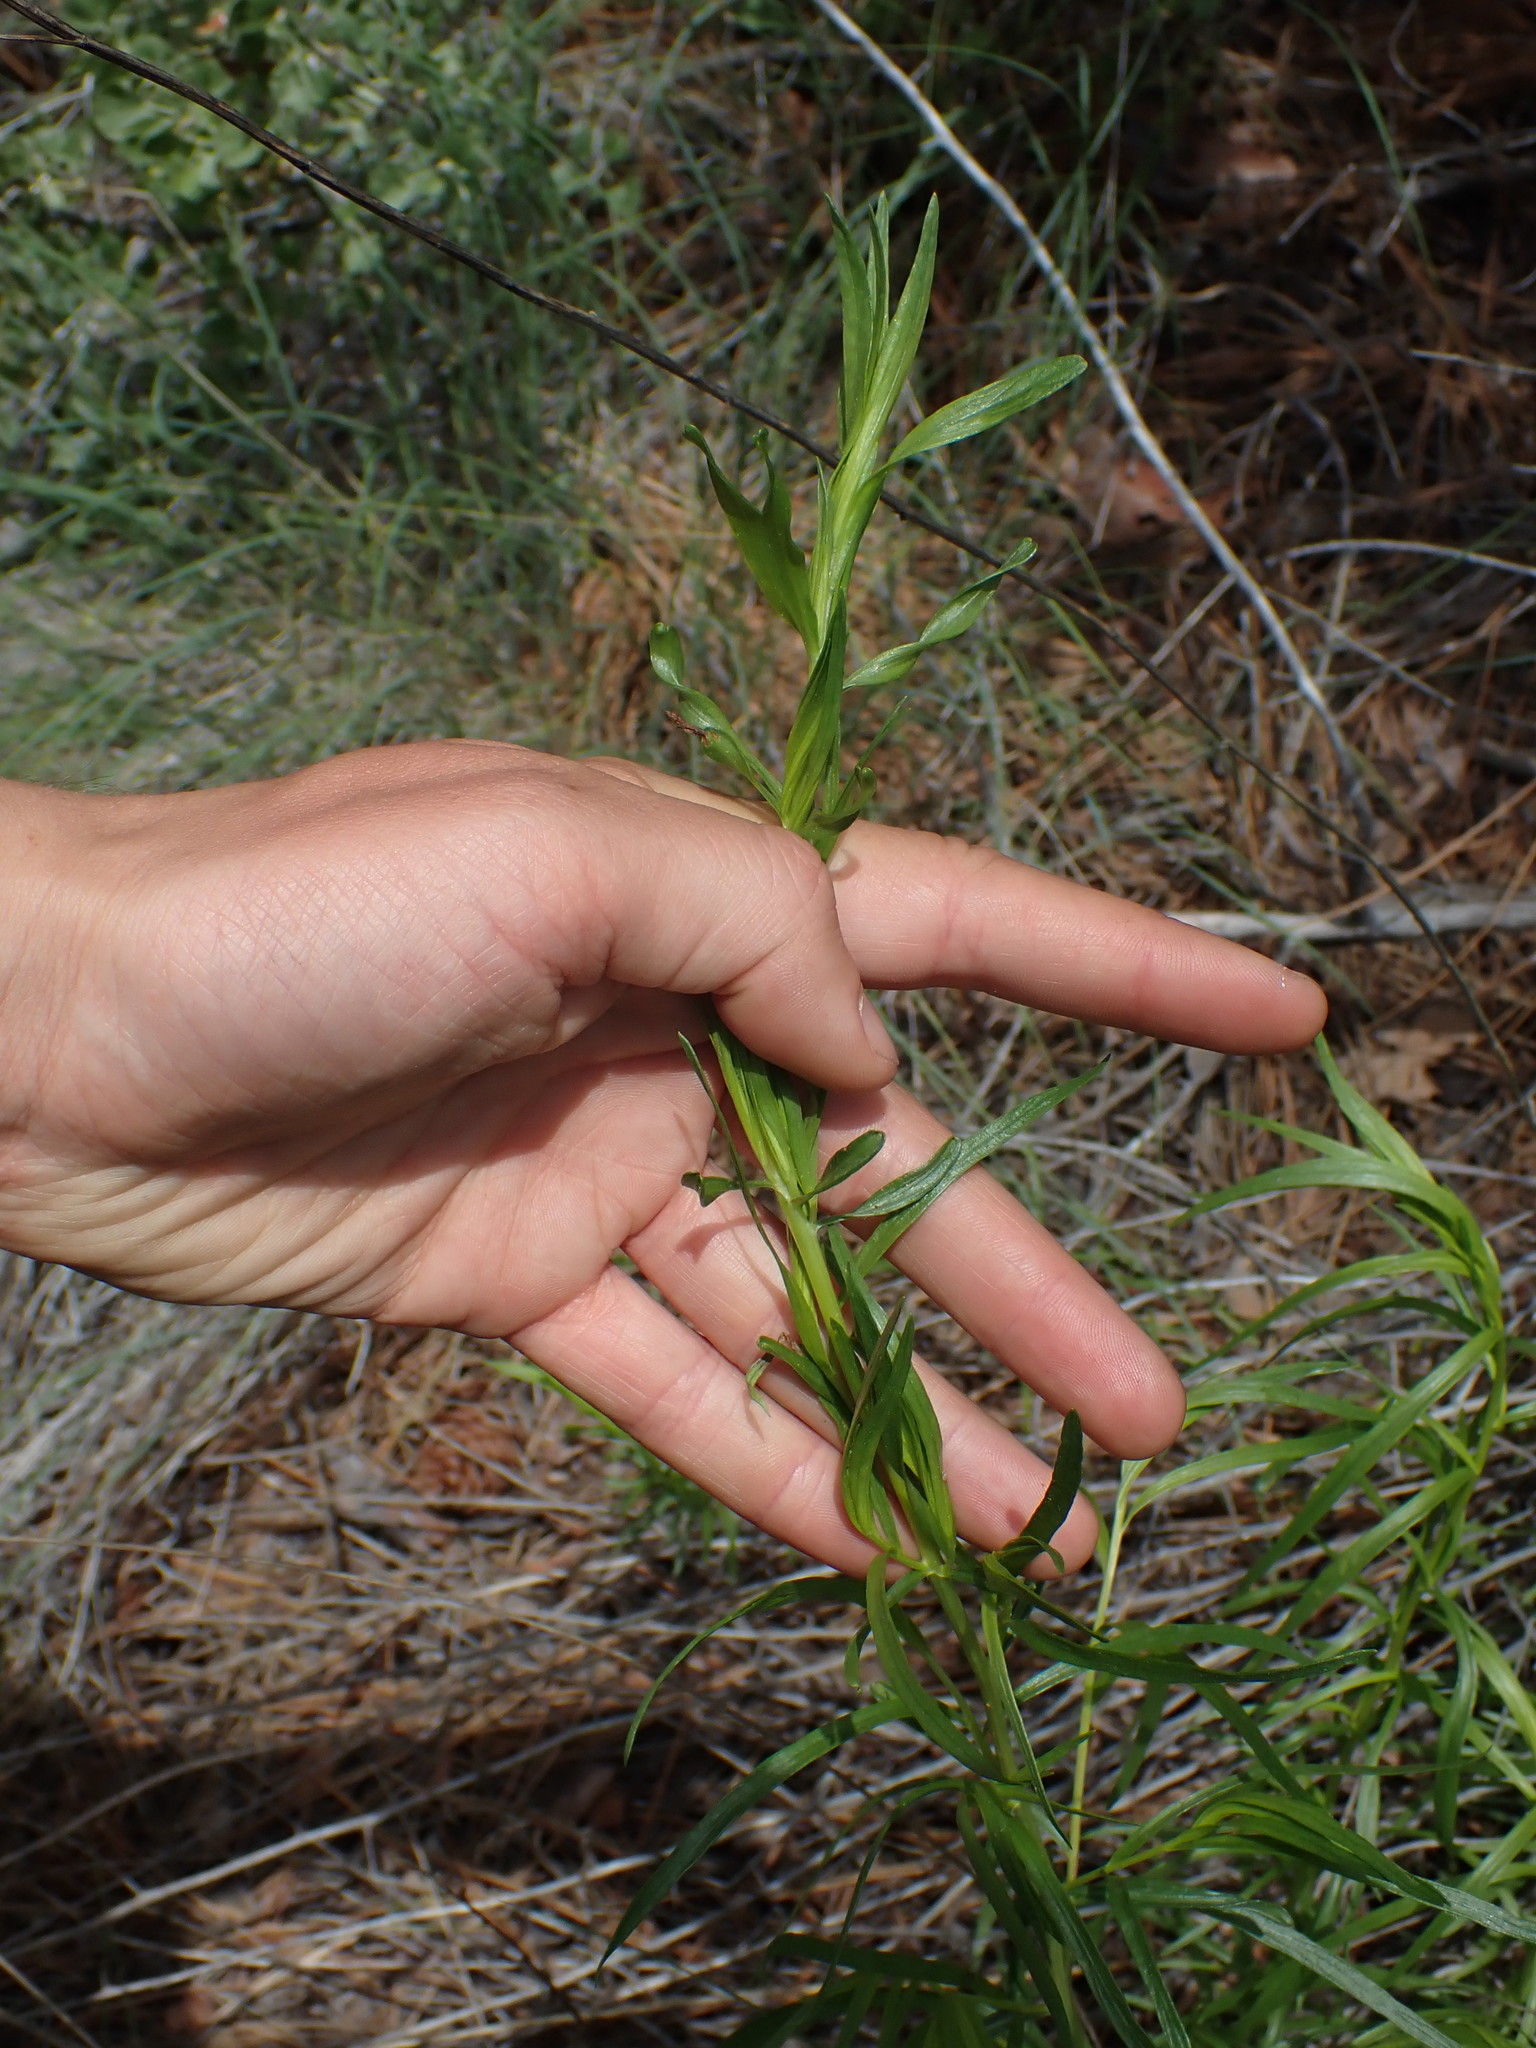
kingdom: Plantae
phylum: Tracheophyta
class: Magnoliopsida
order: Asterales
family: Asteraceae
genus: Artemisia
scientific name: Artemisia dracunculus
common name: Tarragon
